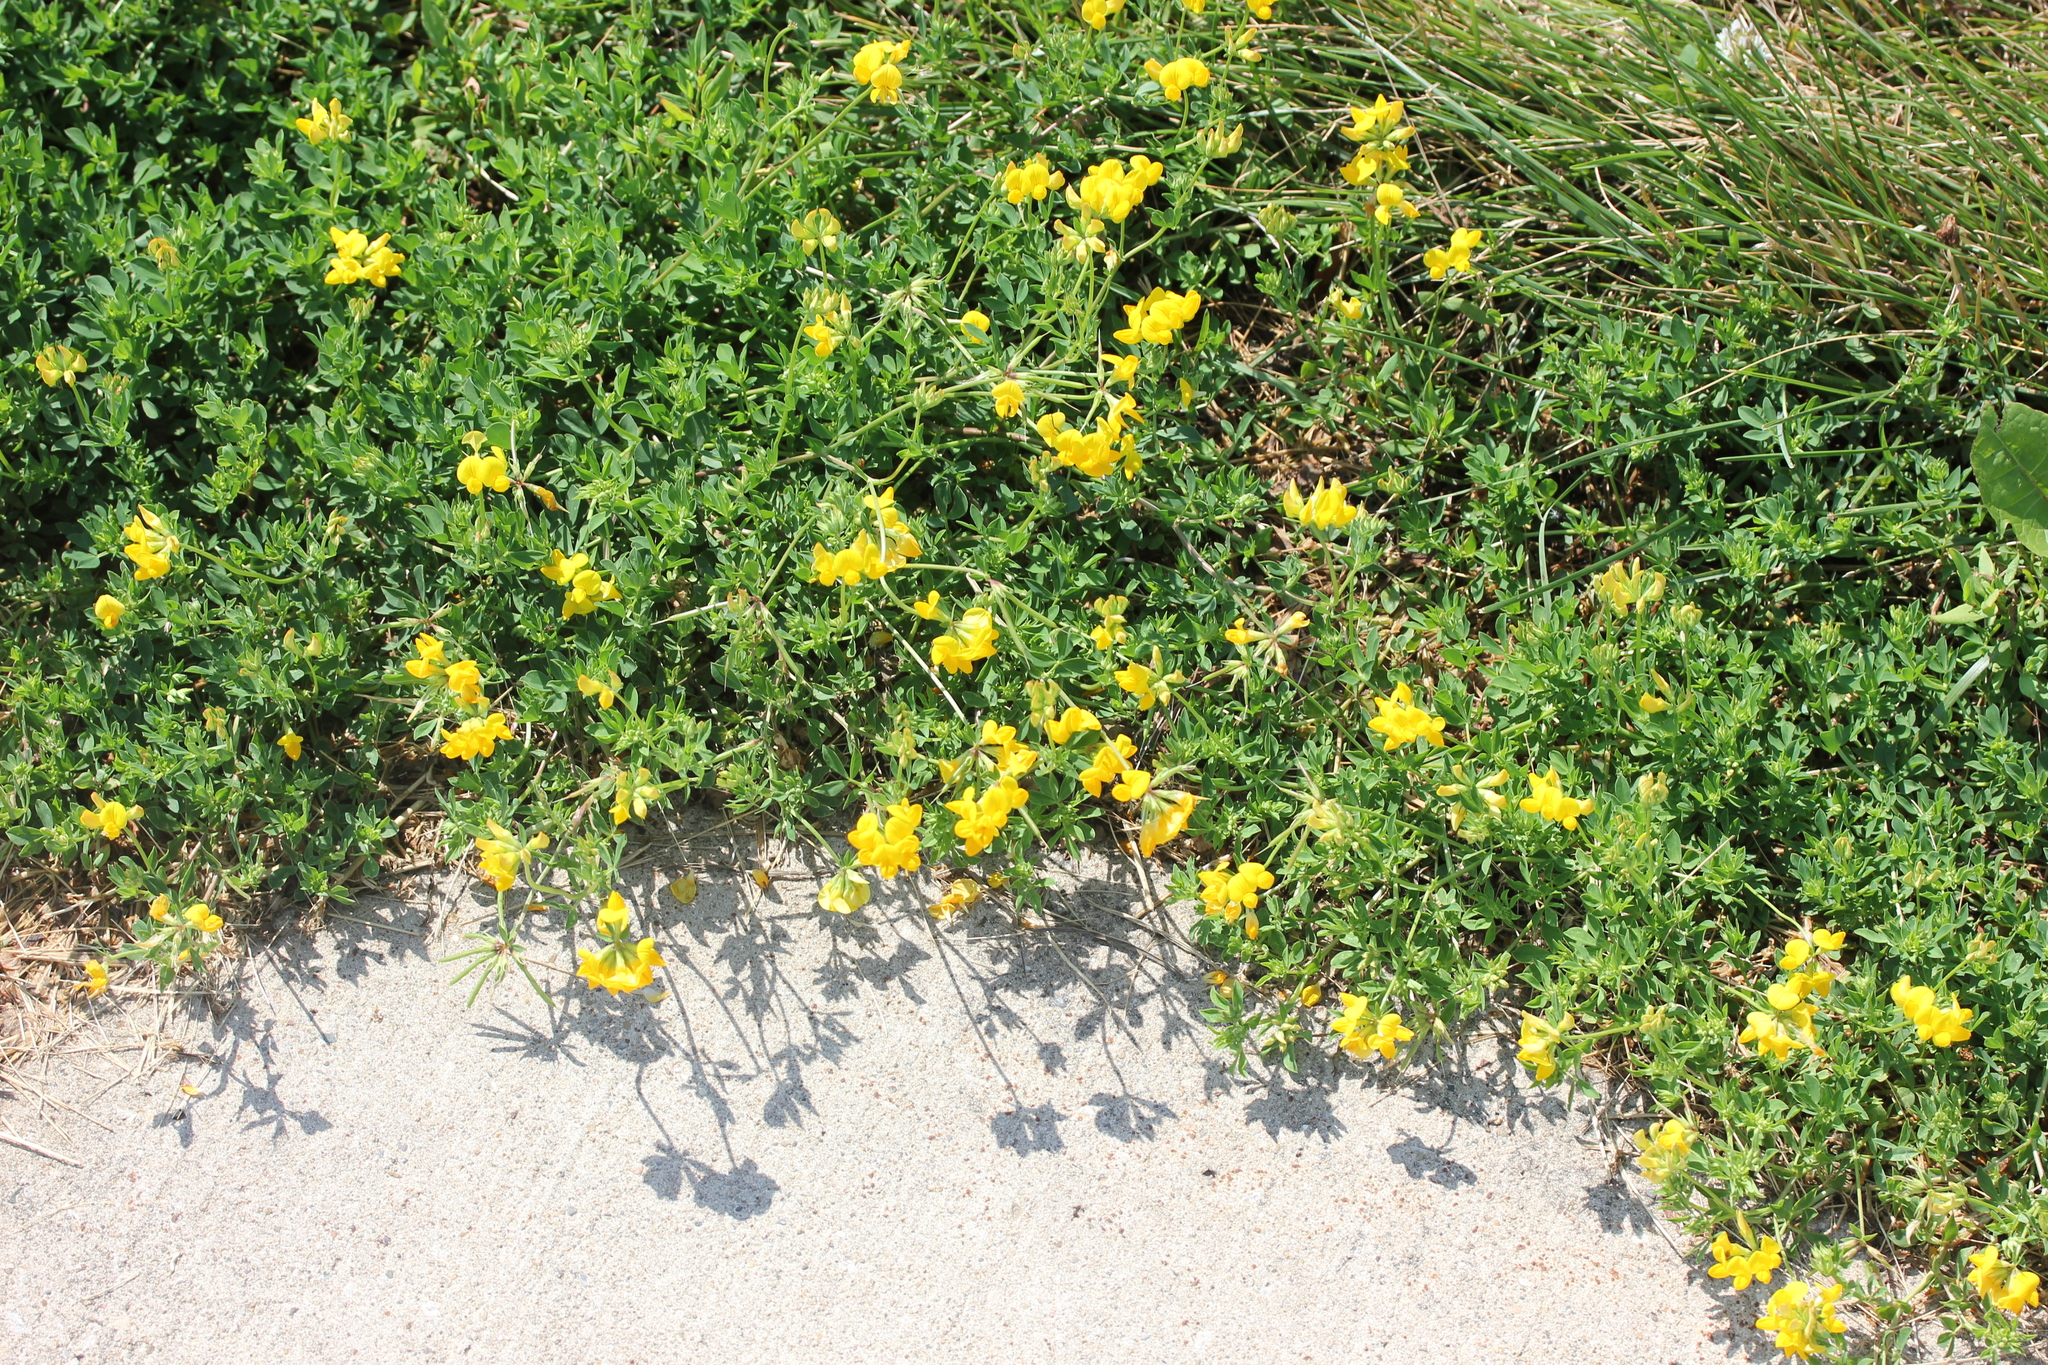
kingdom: Plantae
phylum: Tracheophyta
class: Magnoliopsida
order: Fabales
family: Fabaceae
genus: Lotus
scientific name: Lotus corniculatus
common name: Common bird's-foot-trefoil
